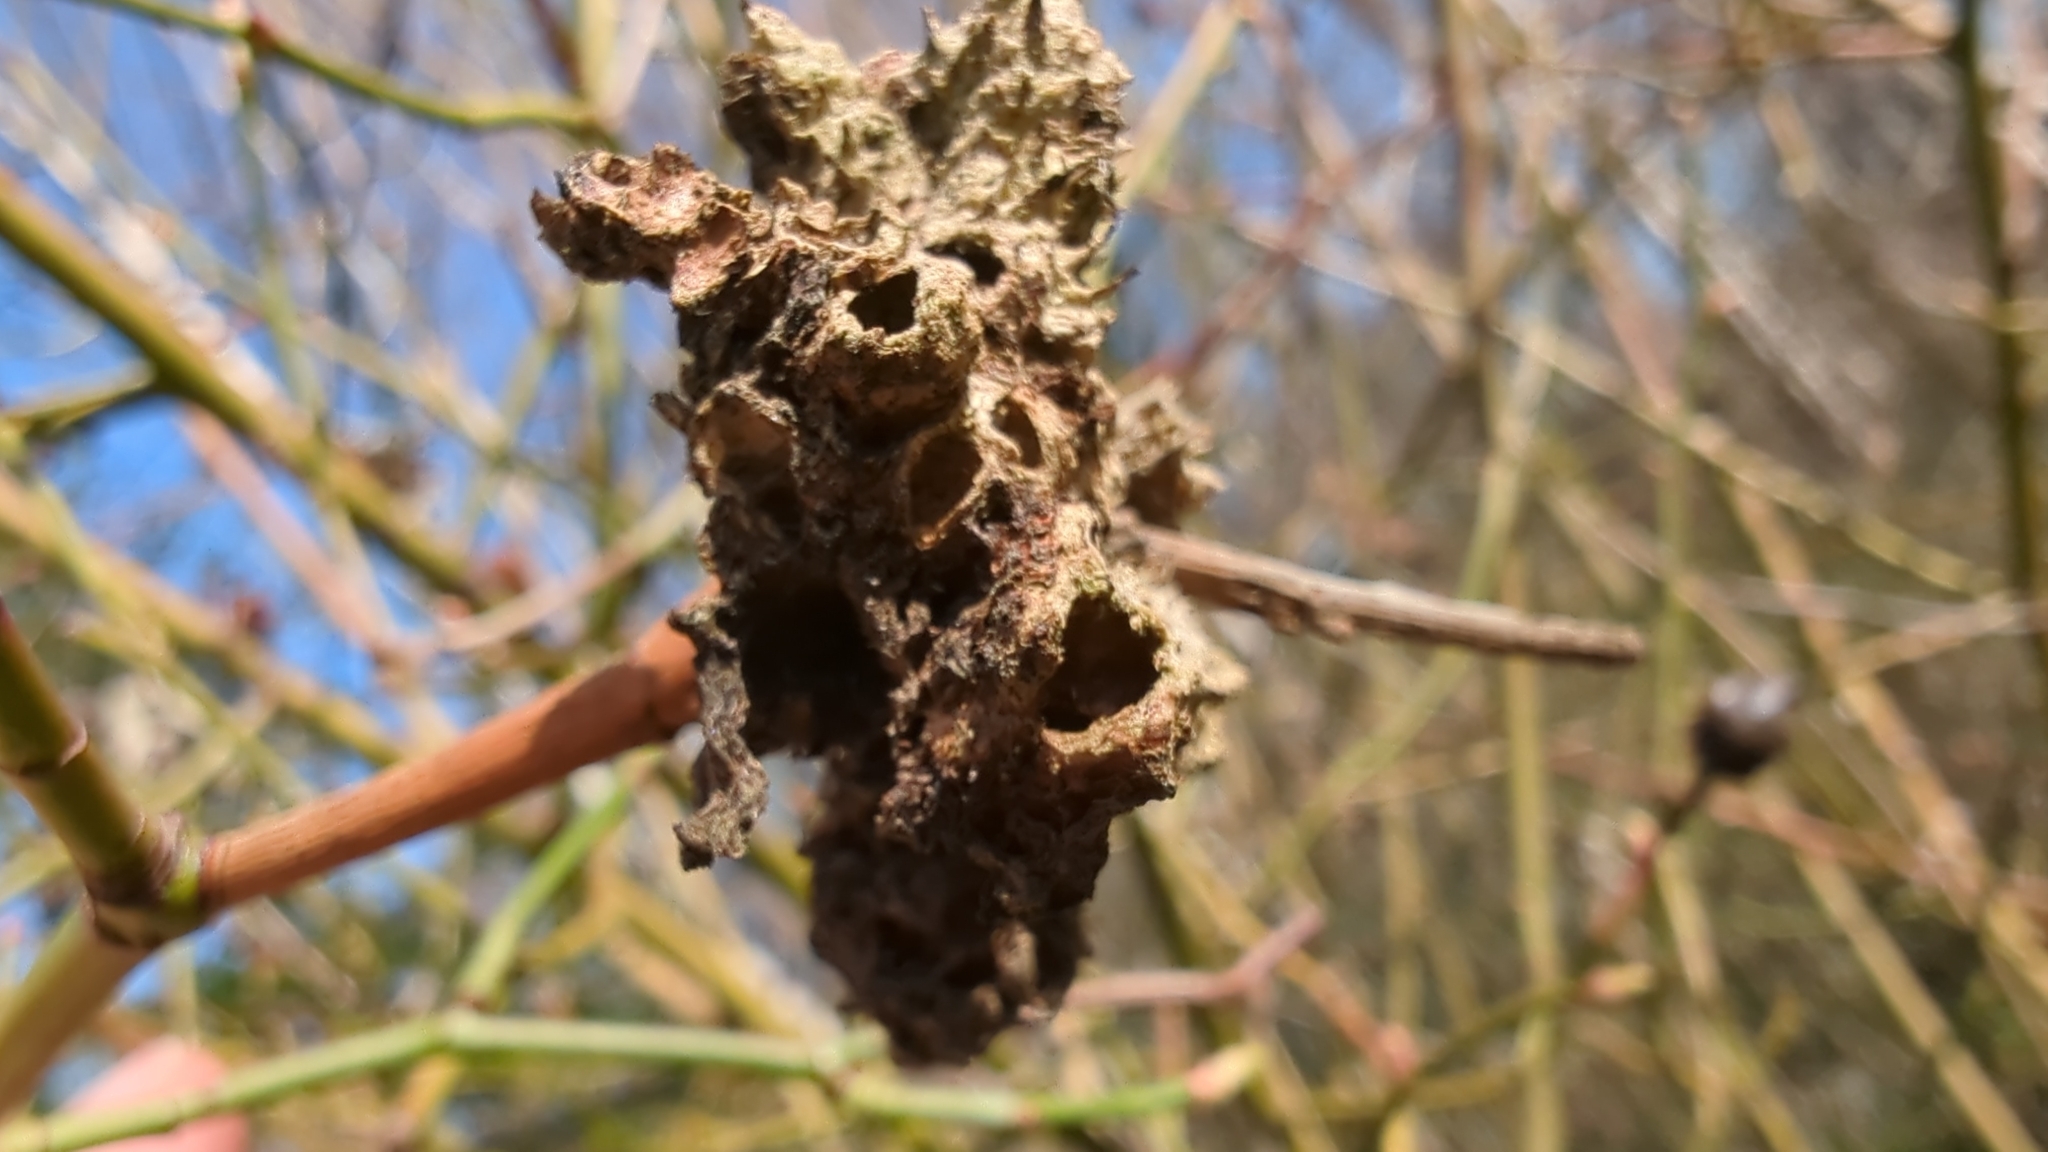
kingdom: Animalia
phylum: Arthropoda
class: Insecta
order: Hymenoptera
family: Cynipidae
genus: Diplolepis
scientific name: Diplolepis rosae
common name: Bedeguar gall
